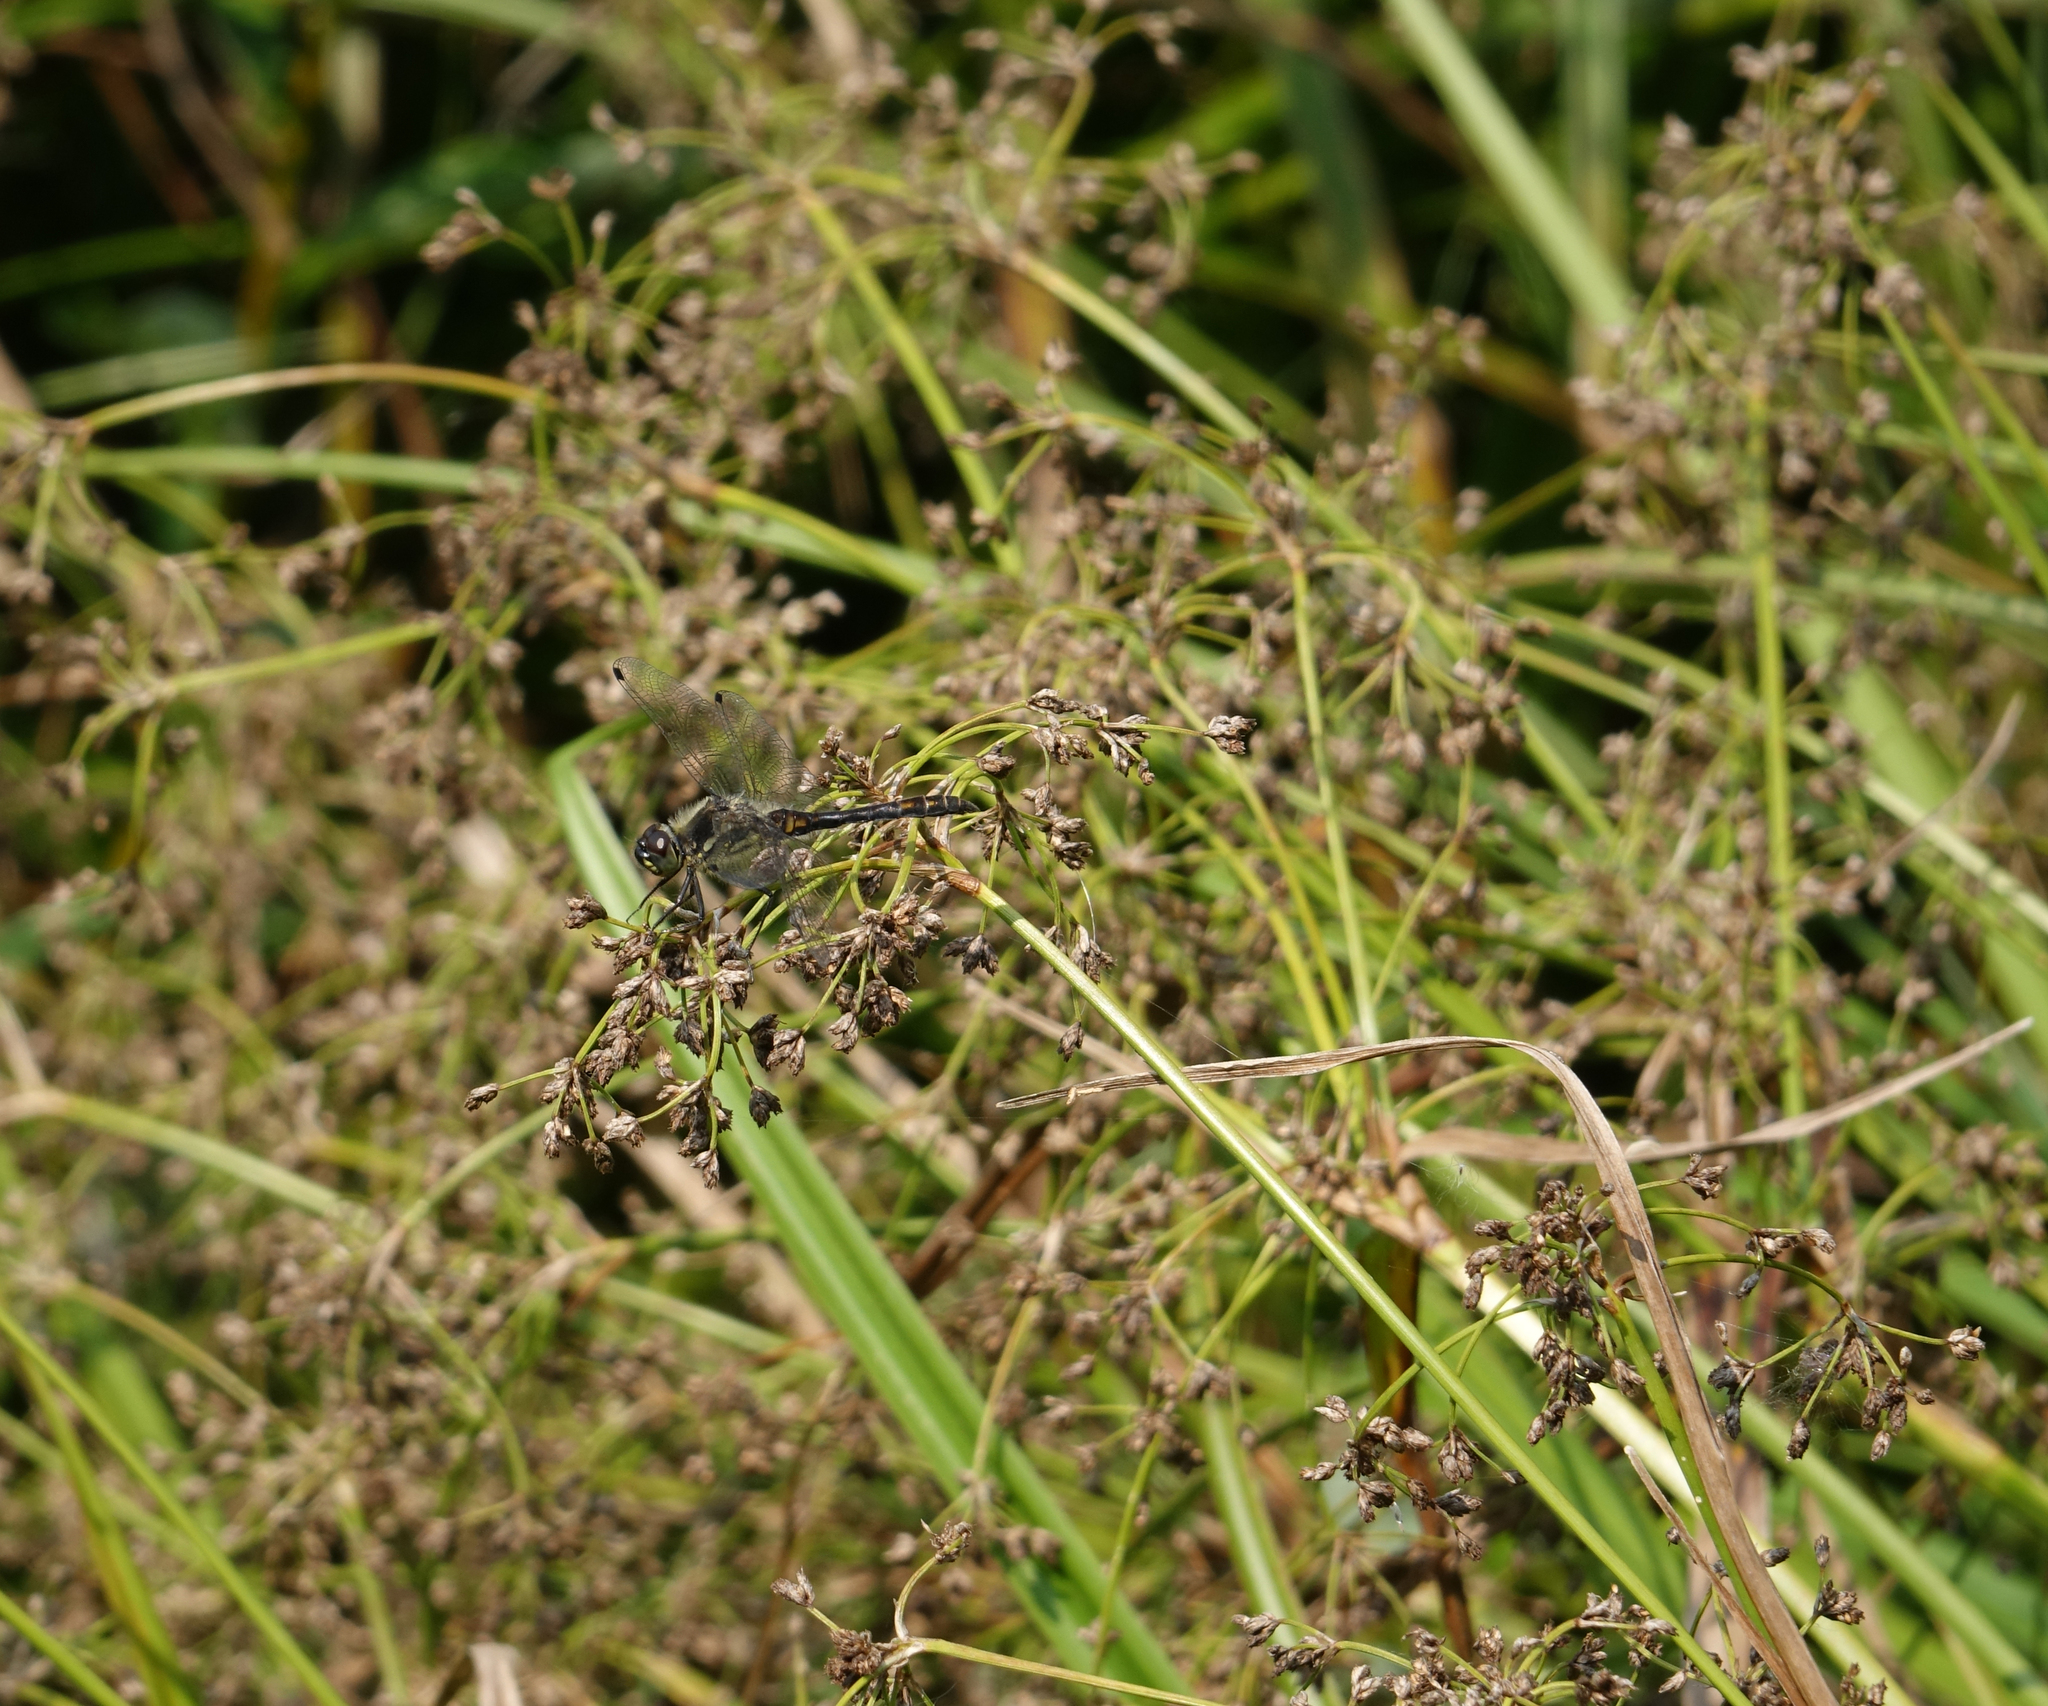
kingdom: Animalia
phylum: Arthropoda
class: Insecta
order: Odonata
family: Libellulidae
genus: Sympetrum
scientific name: Sympetrum danae
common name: Black darter
